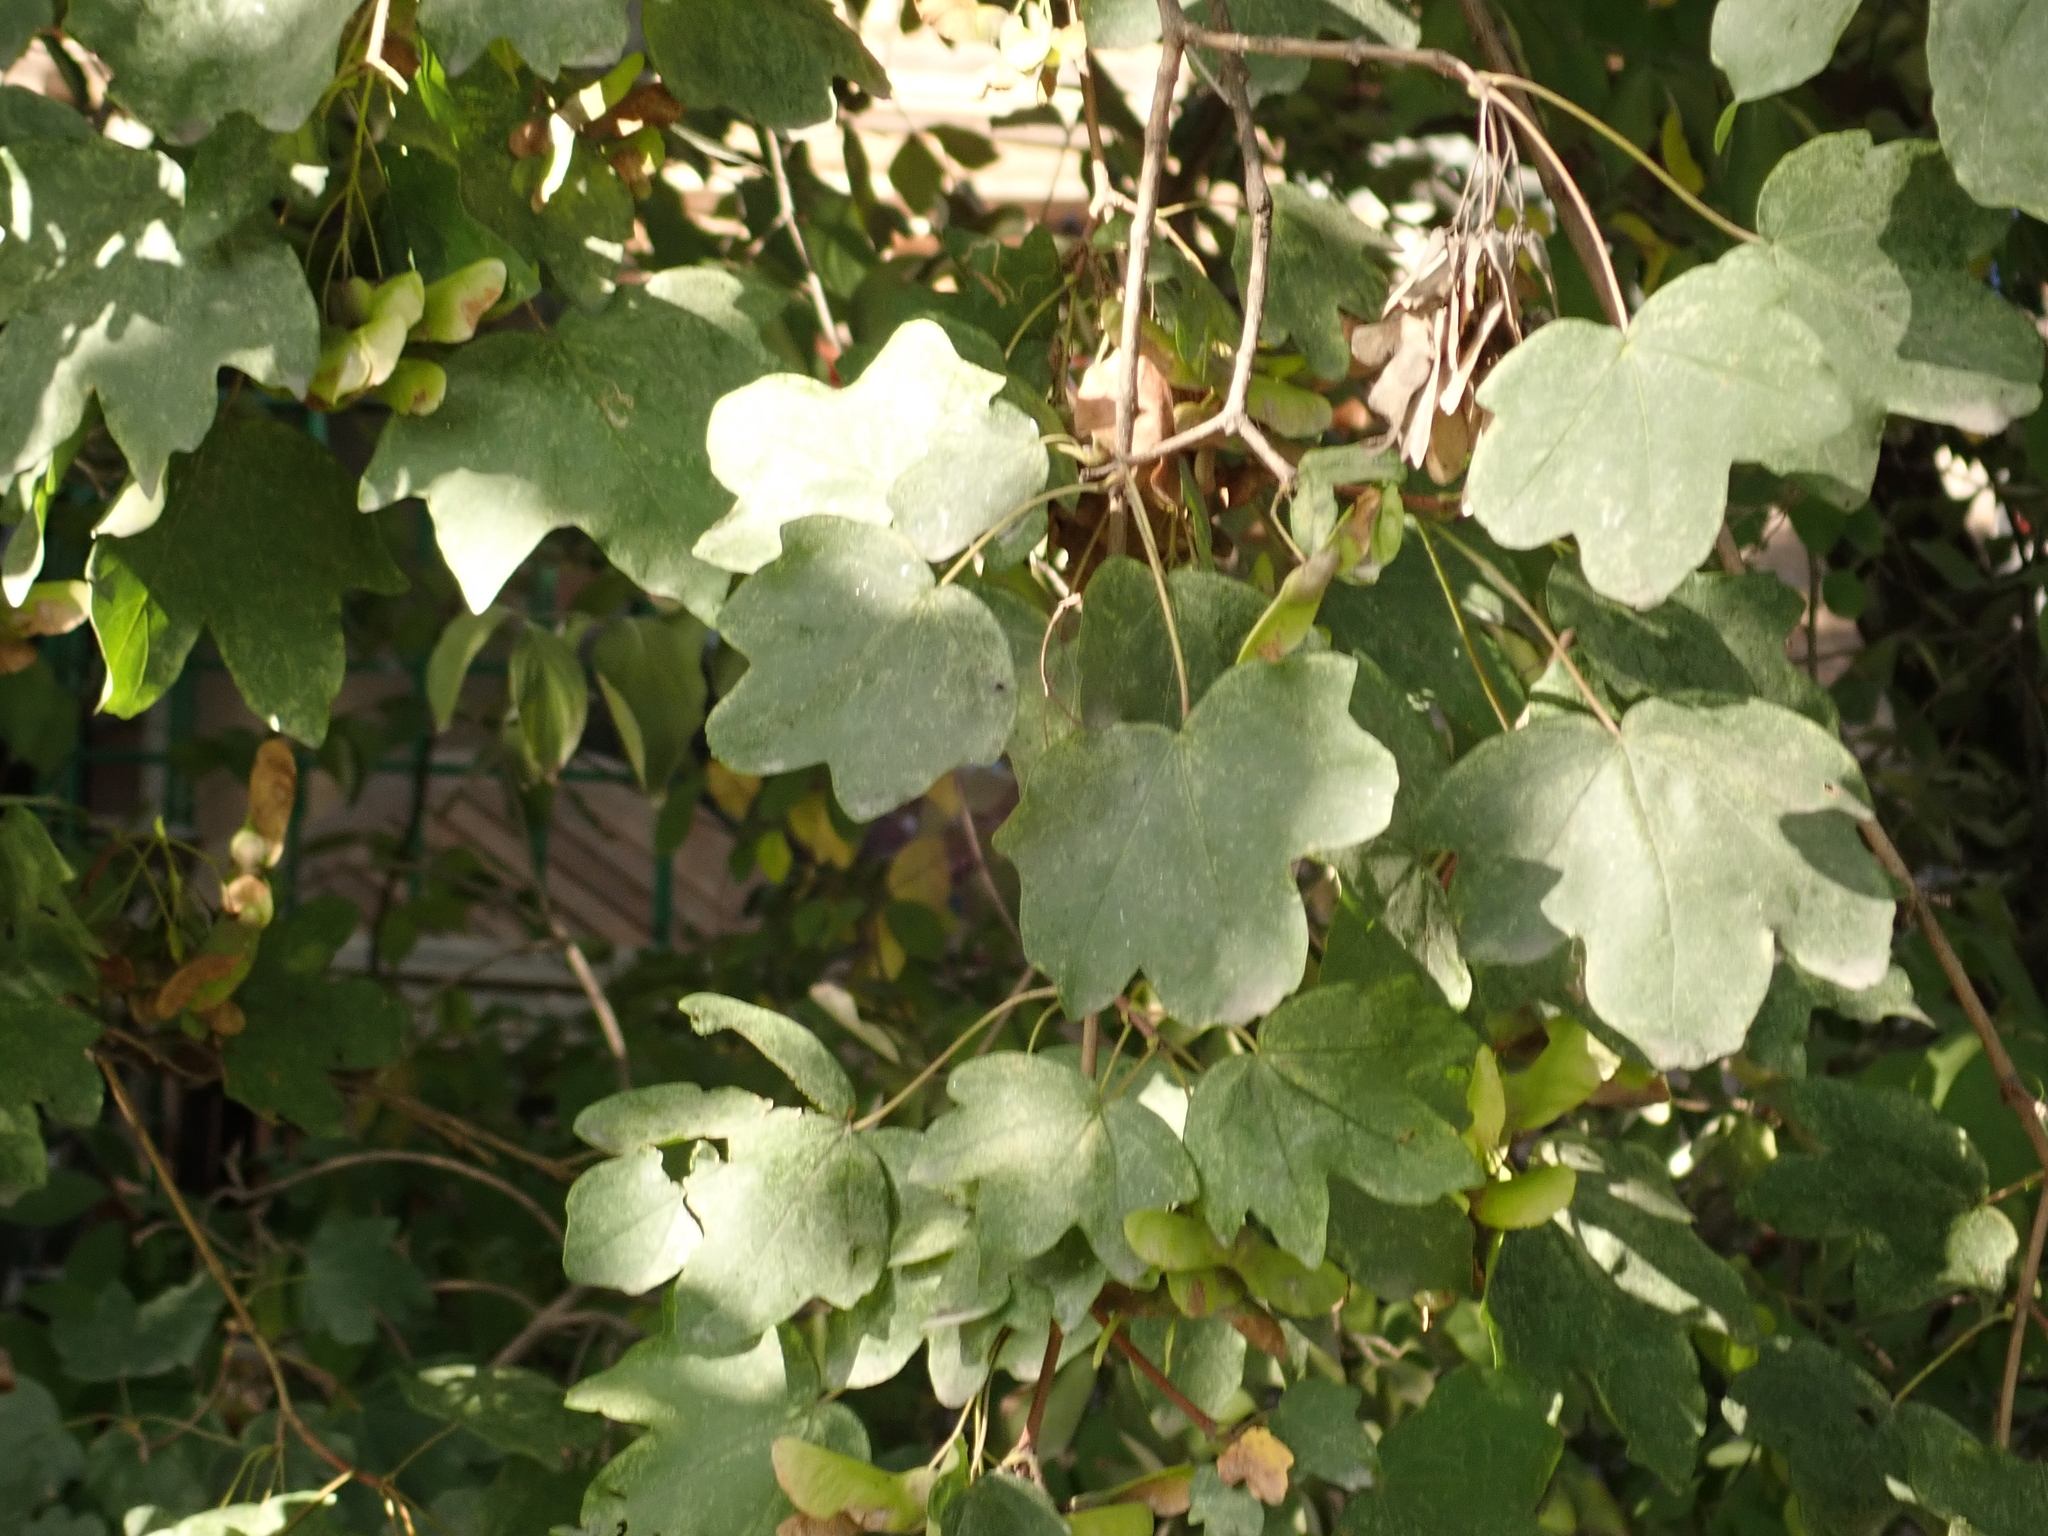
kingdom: Plantae
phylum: Tracheophyta
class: Magnoliopsida
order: Sapindales
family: Sapindaceae
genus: Acer
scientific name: Acer campestre
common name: Field maple
